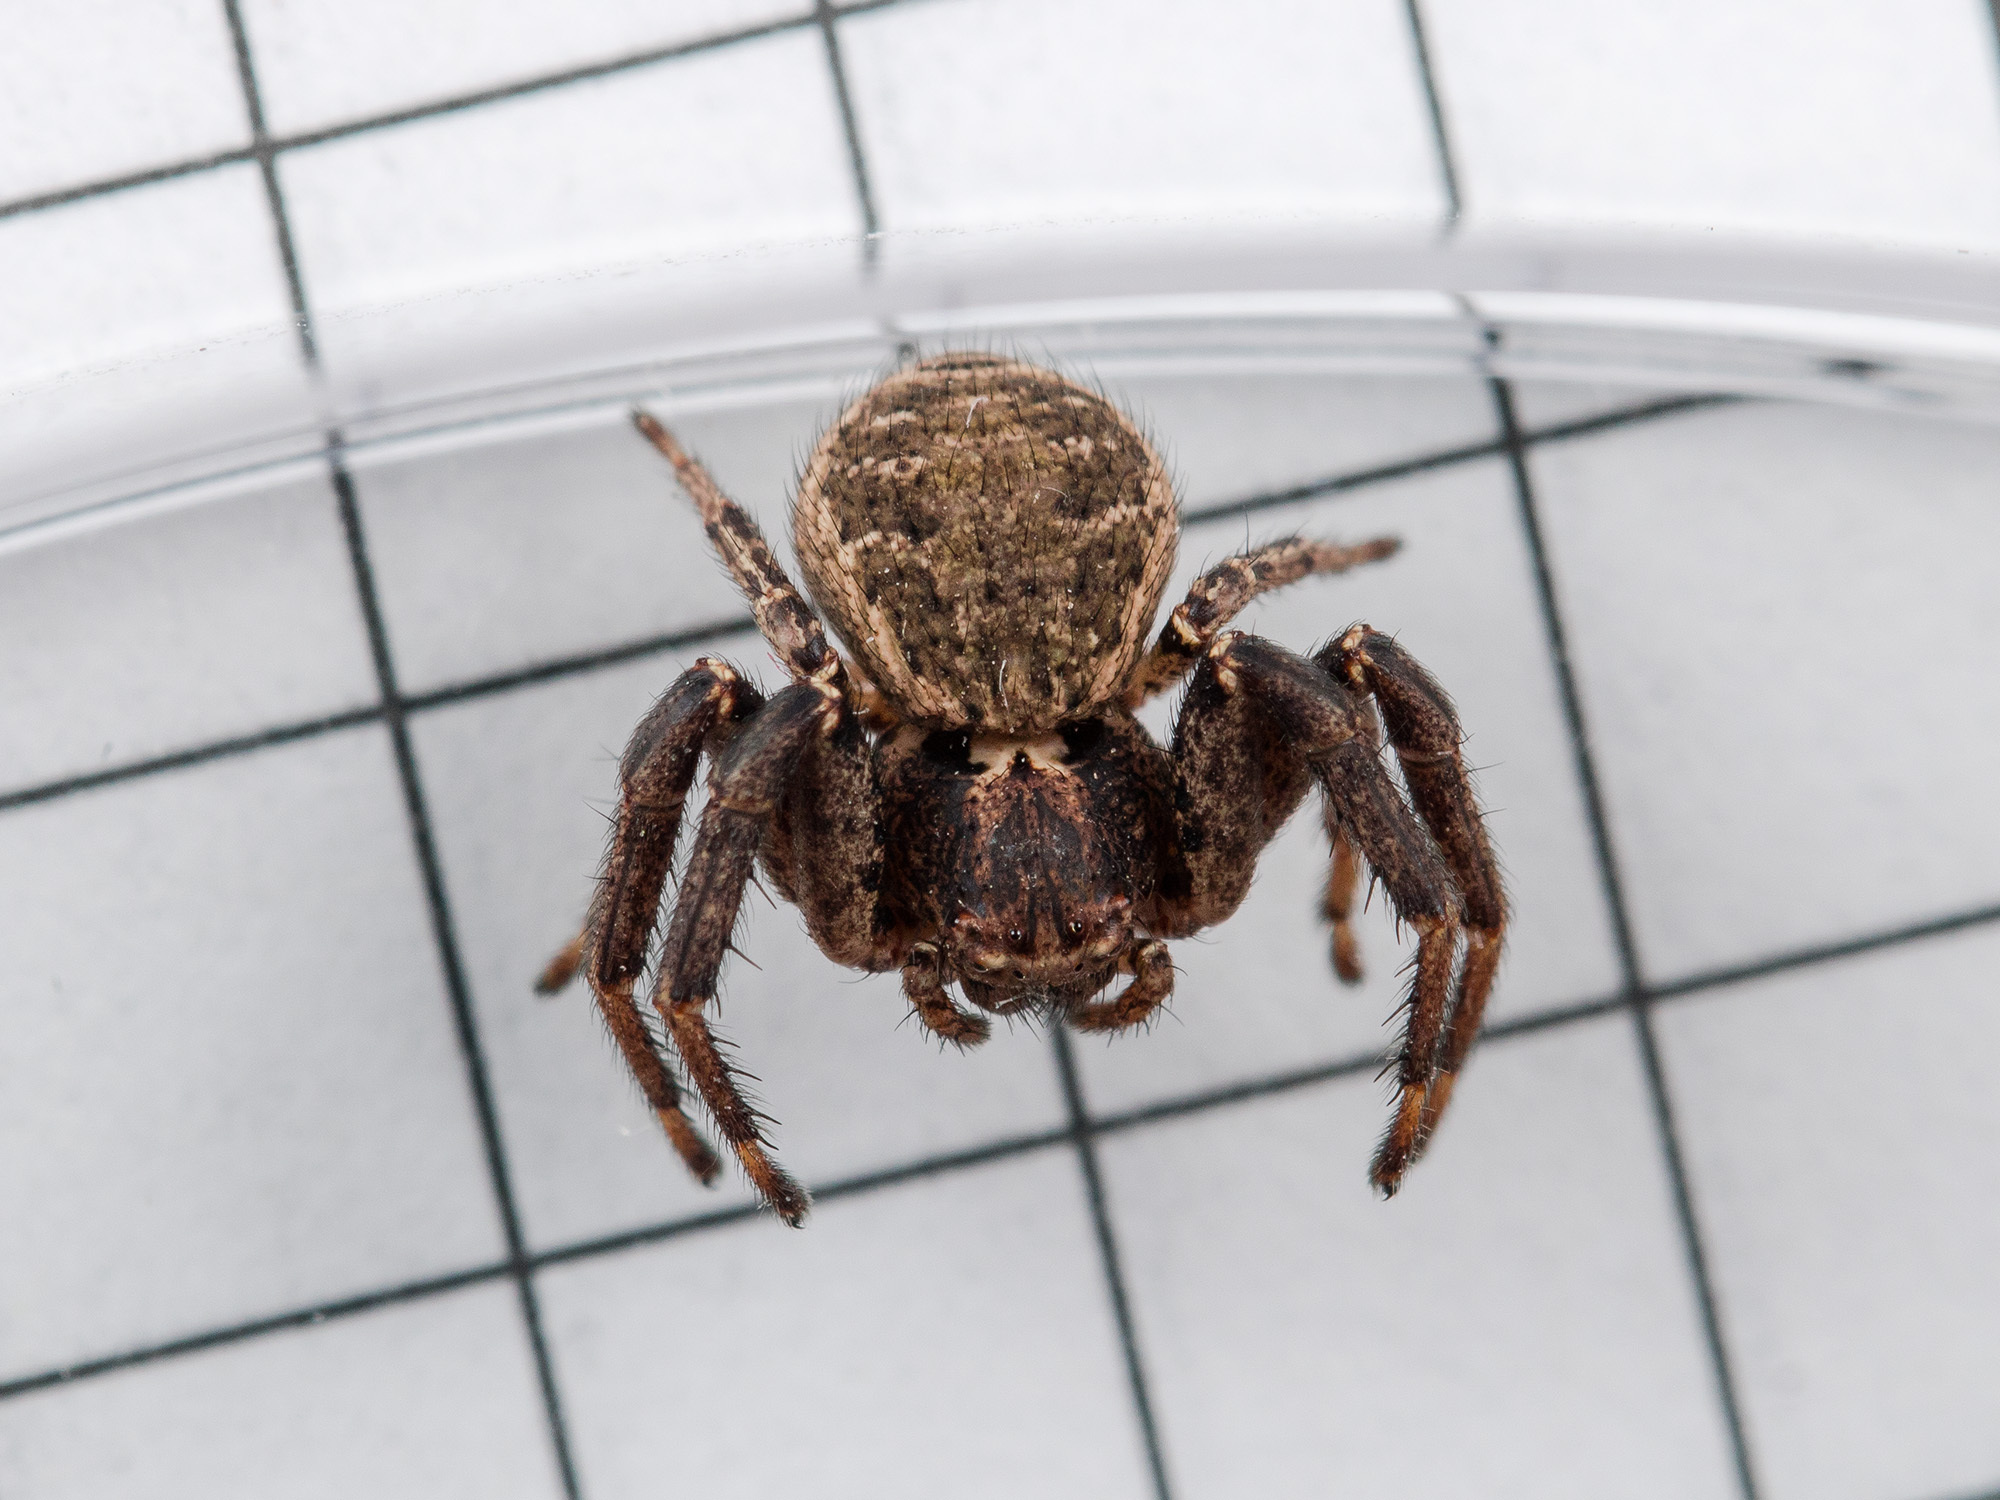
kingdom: Animalia
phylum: Arthropoda
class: Arachnida
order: Araneae
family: Thomisidae
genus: Xysticus
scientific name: Xysticus pseudoluctuosus
